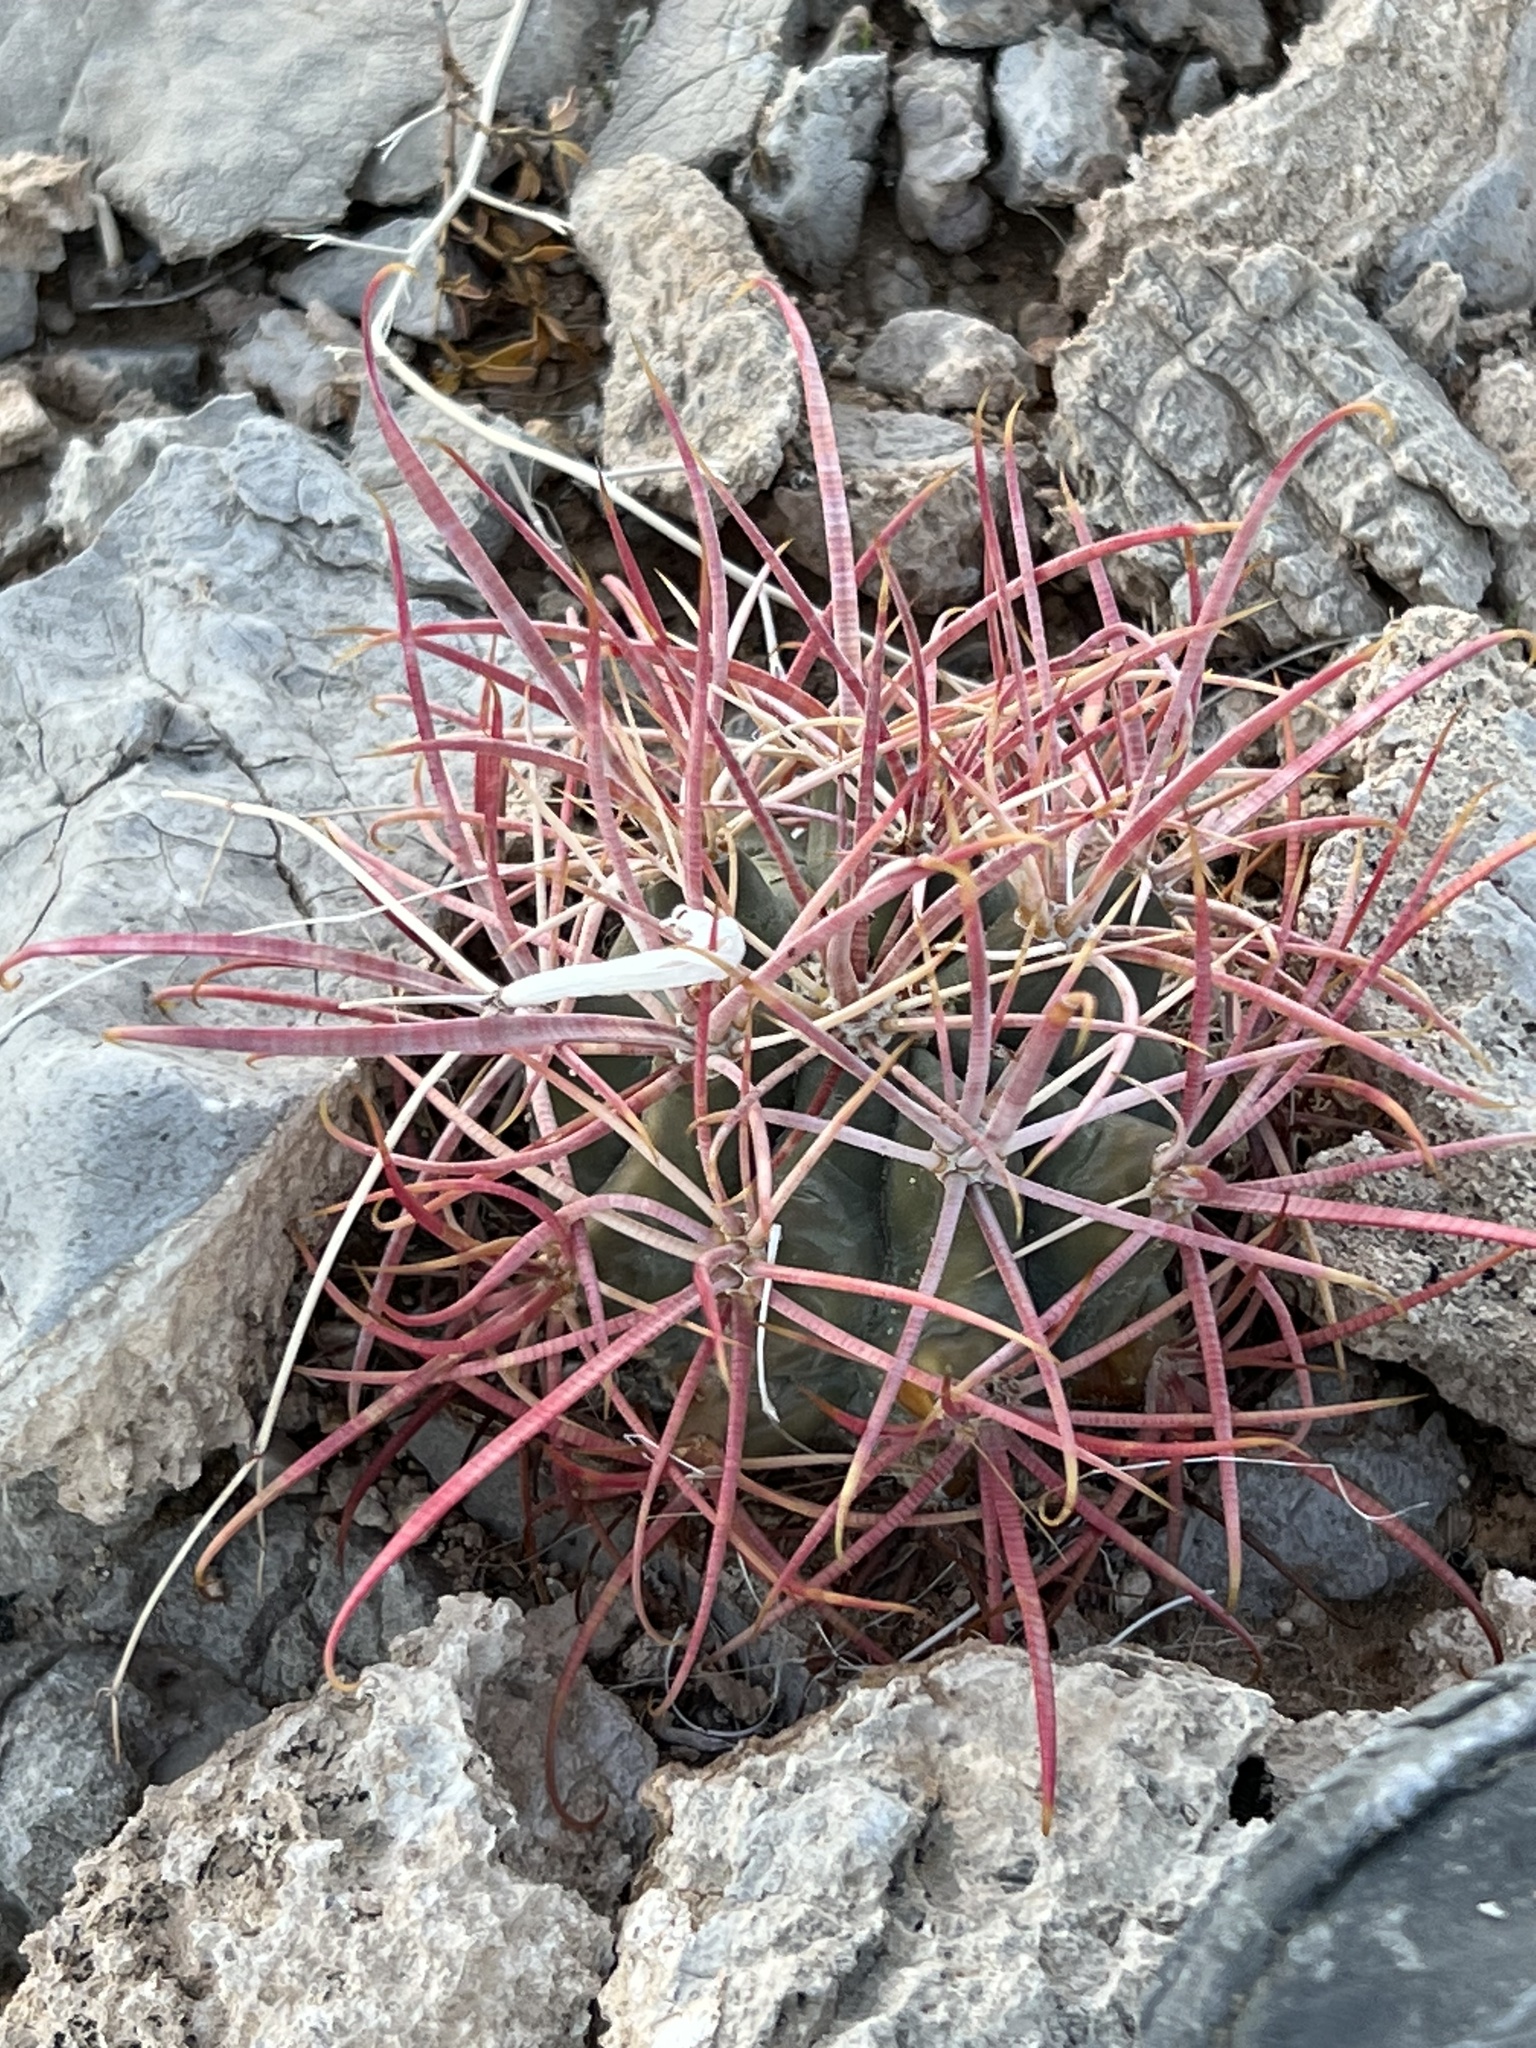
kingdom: Plantae
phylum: Tracheophyta
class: Magnoliopsida
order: Caryophyllales
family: Cactaceae
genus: Ferocactus
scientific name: Ferocactus cylindraceus
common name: California barrel cactus
